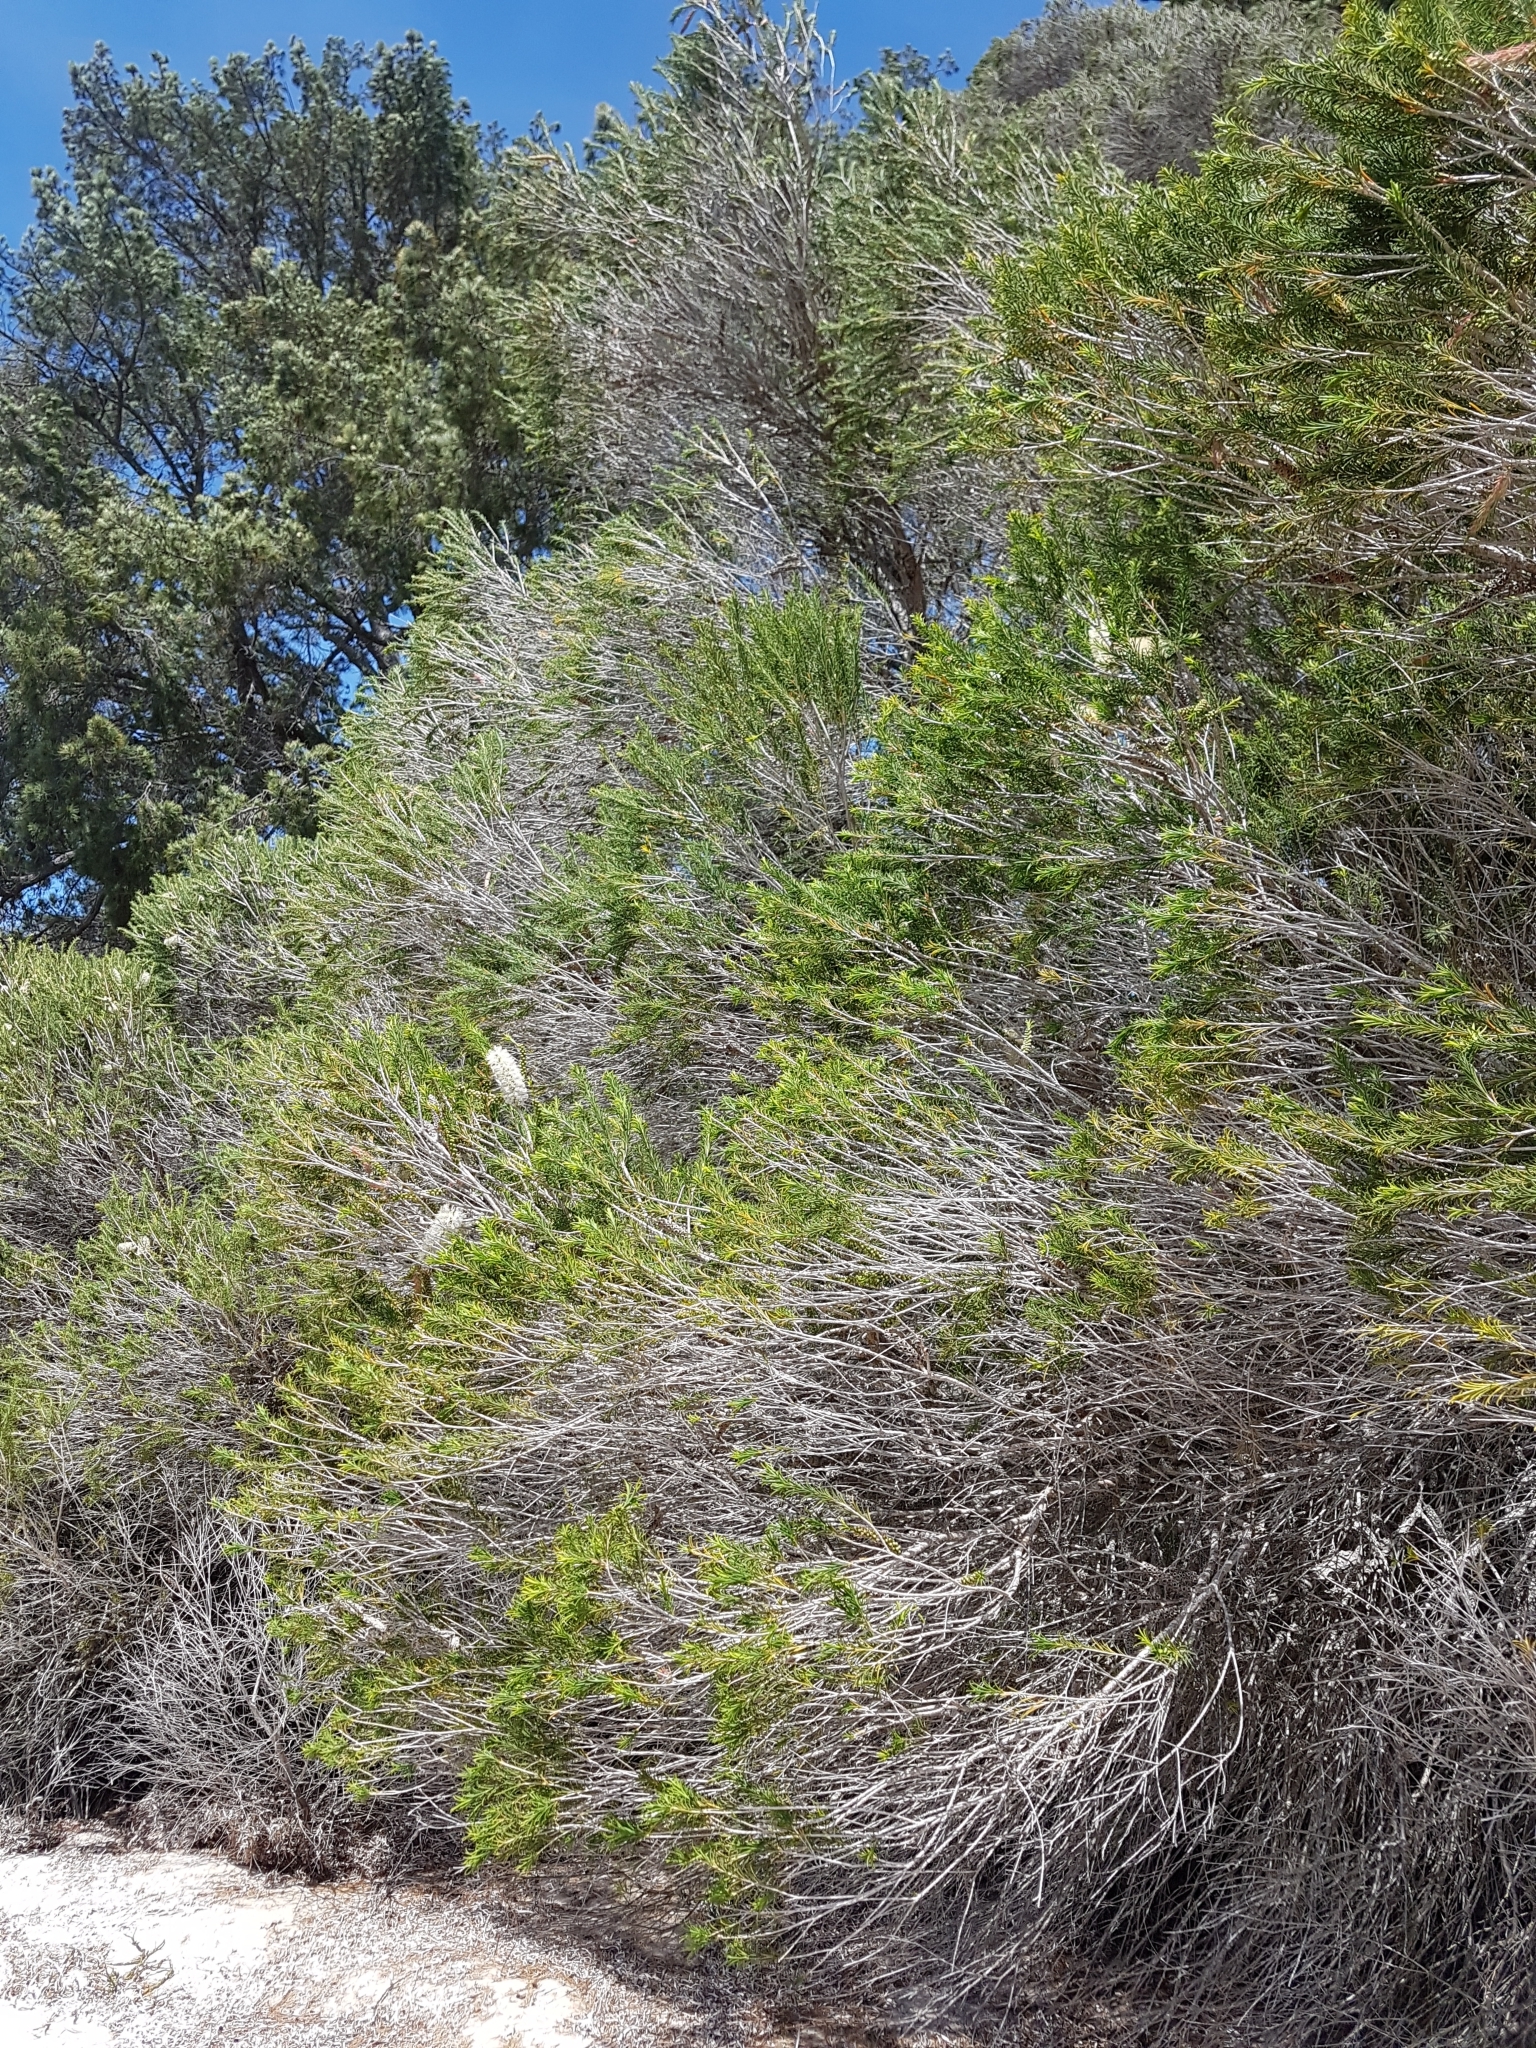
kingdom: Plantae
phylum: Tracheophyta
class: Magnoliopsida
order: Myrtales
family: Myrtaceae
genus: Melaleuca
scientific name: Melaleuca armillaris
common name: Bracelet honey myrtle
